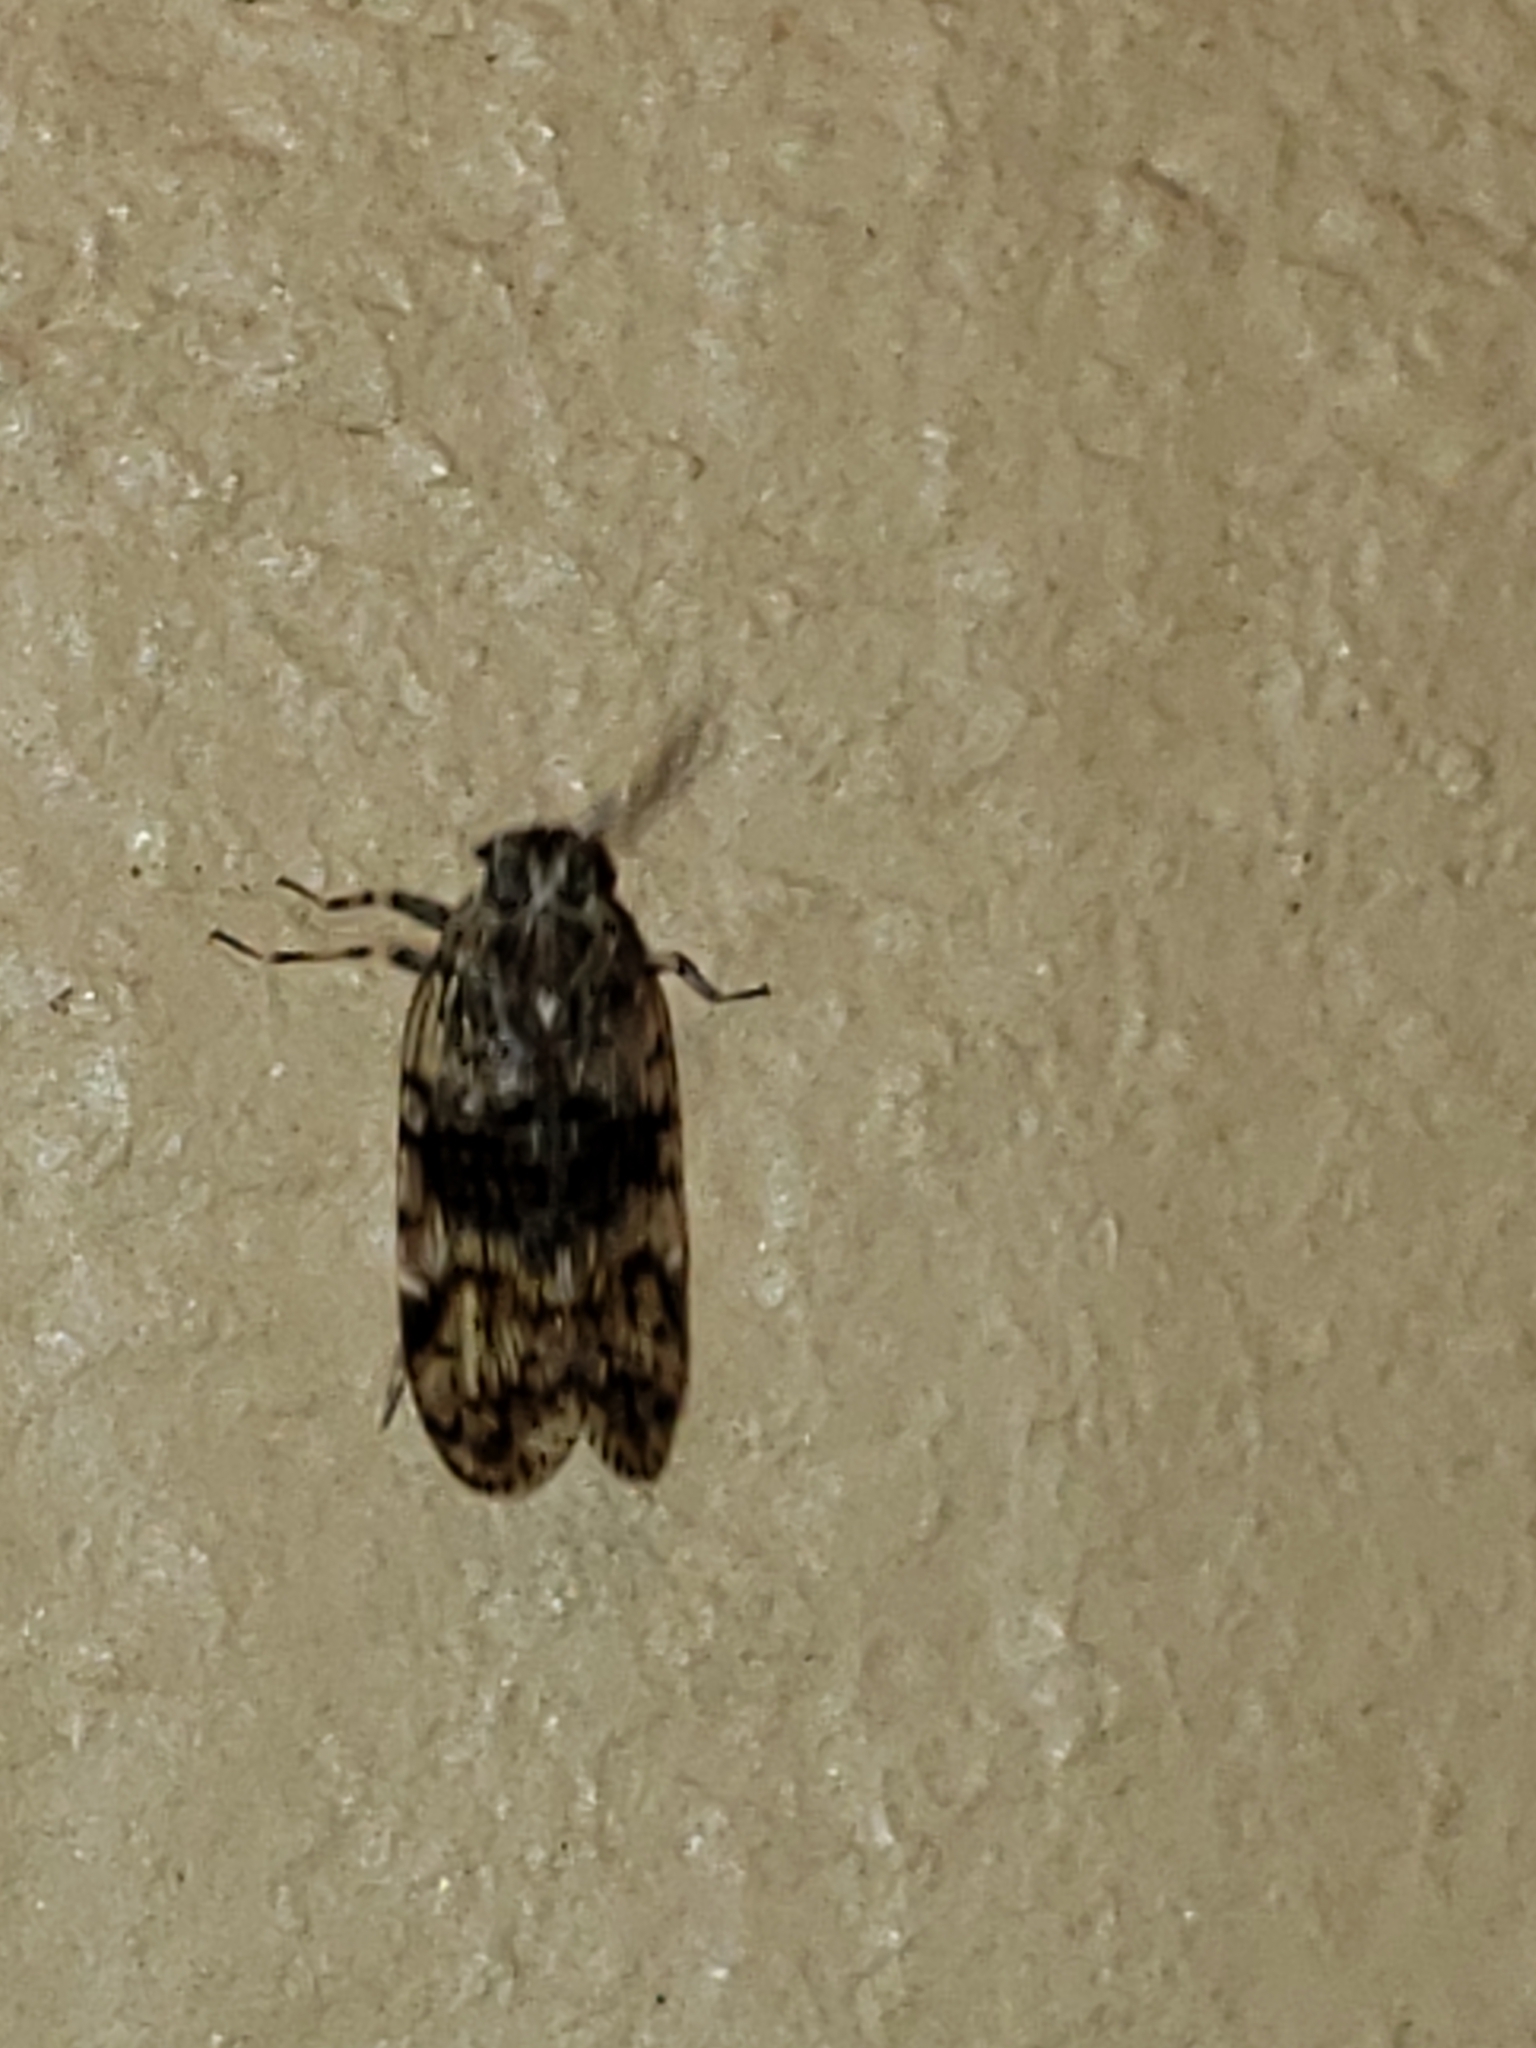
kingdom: Animalia
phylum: Arthropoda
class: Insecta
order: Hemiptera
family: Cixiidae
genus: Melanoliarus
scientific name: Melanoliarus placitus
